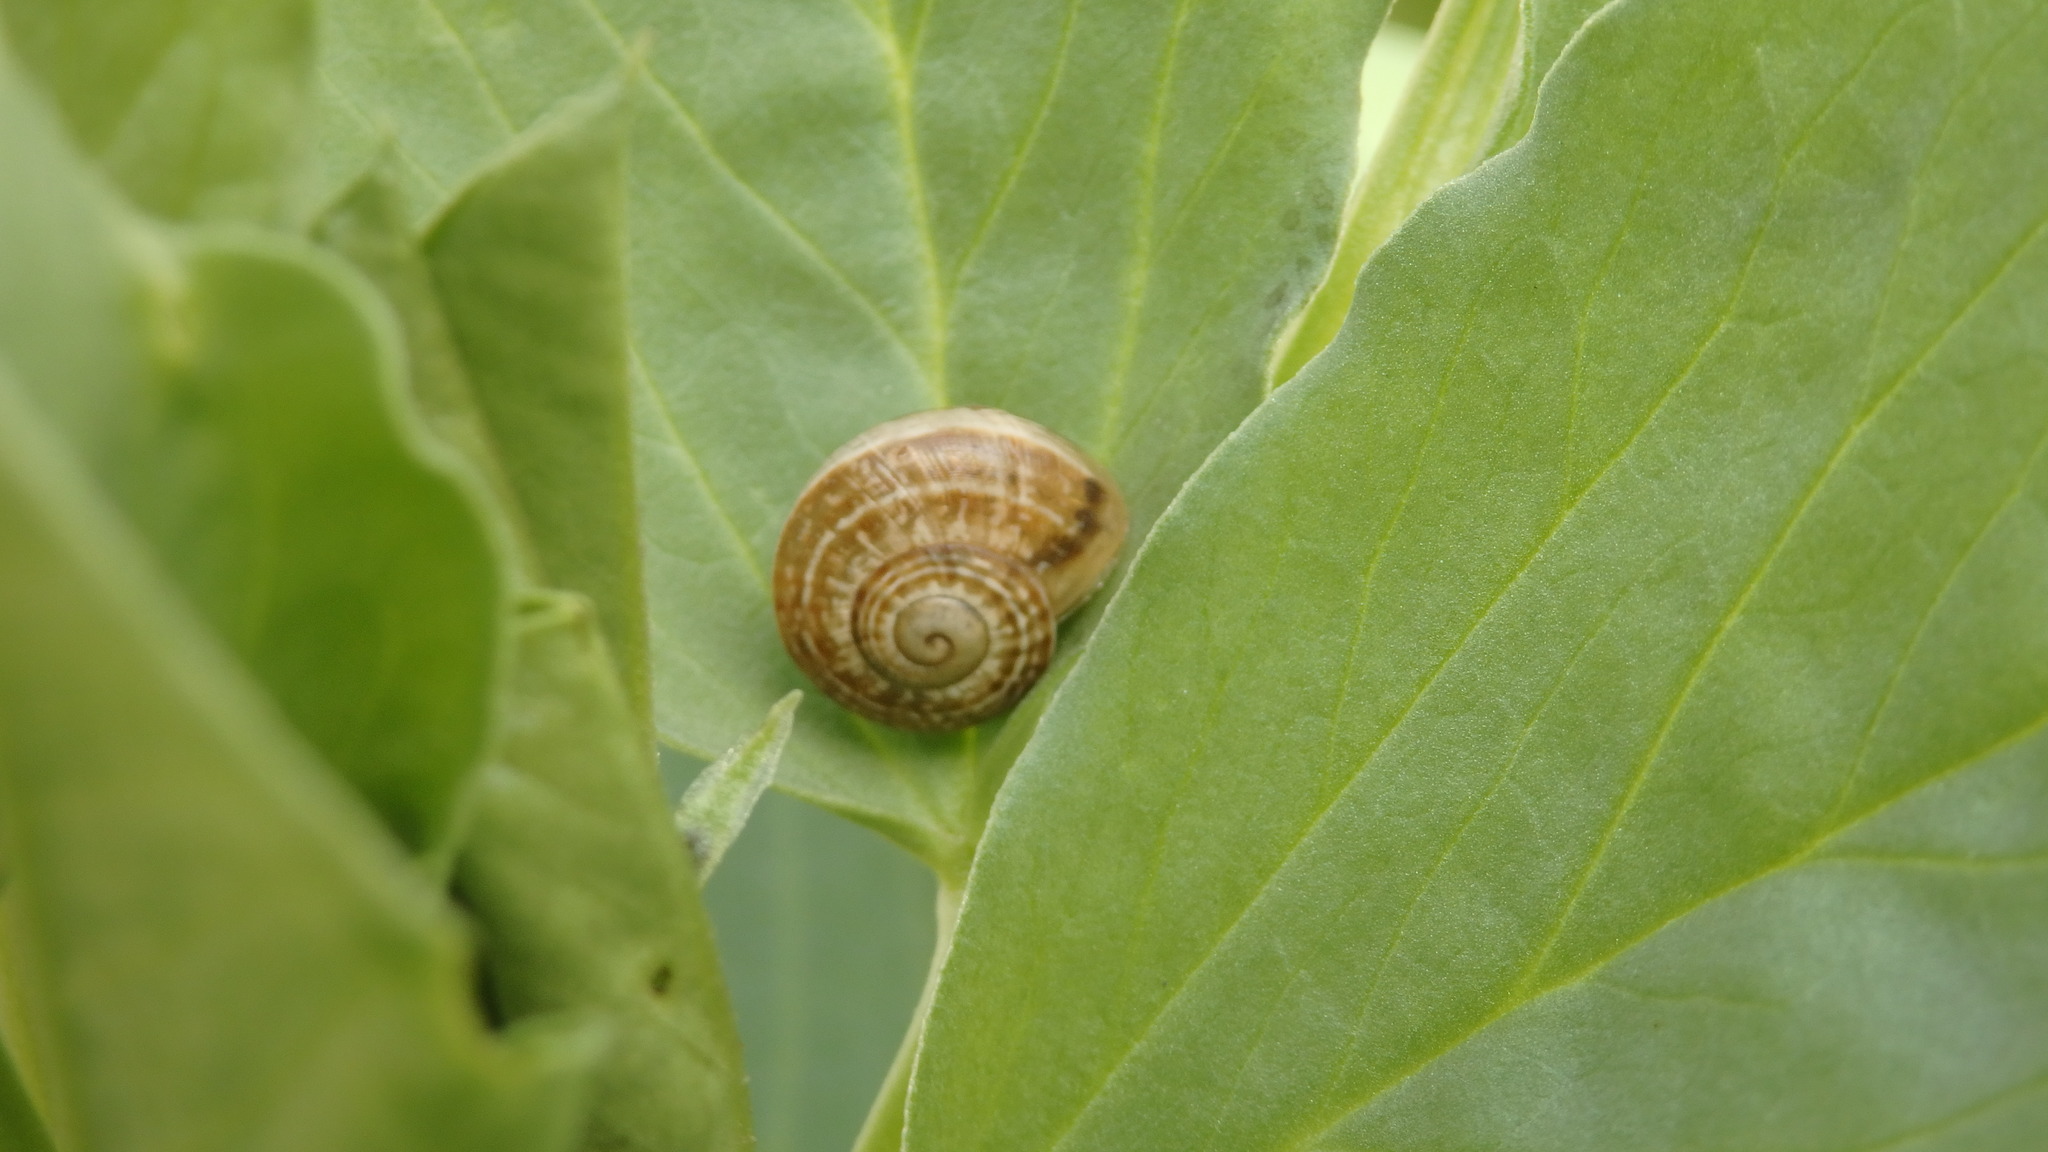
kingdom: Animalia
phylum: Mollusca
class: Gastropoda
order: Stylommatophora
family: Helicidae
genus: Otala
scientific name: Otala lactea
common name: Milk snail
